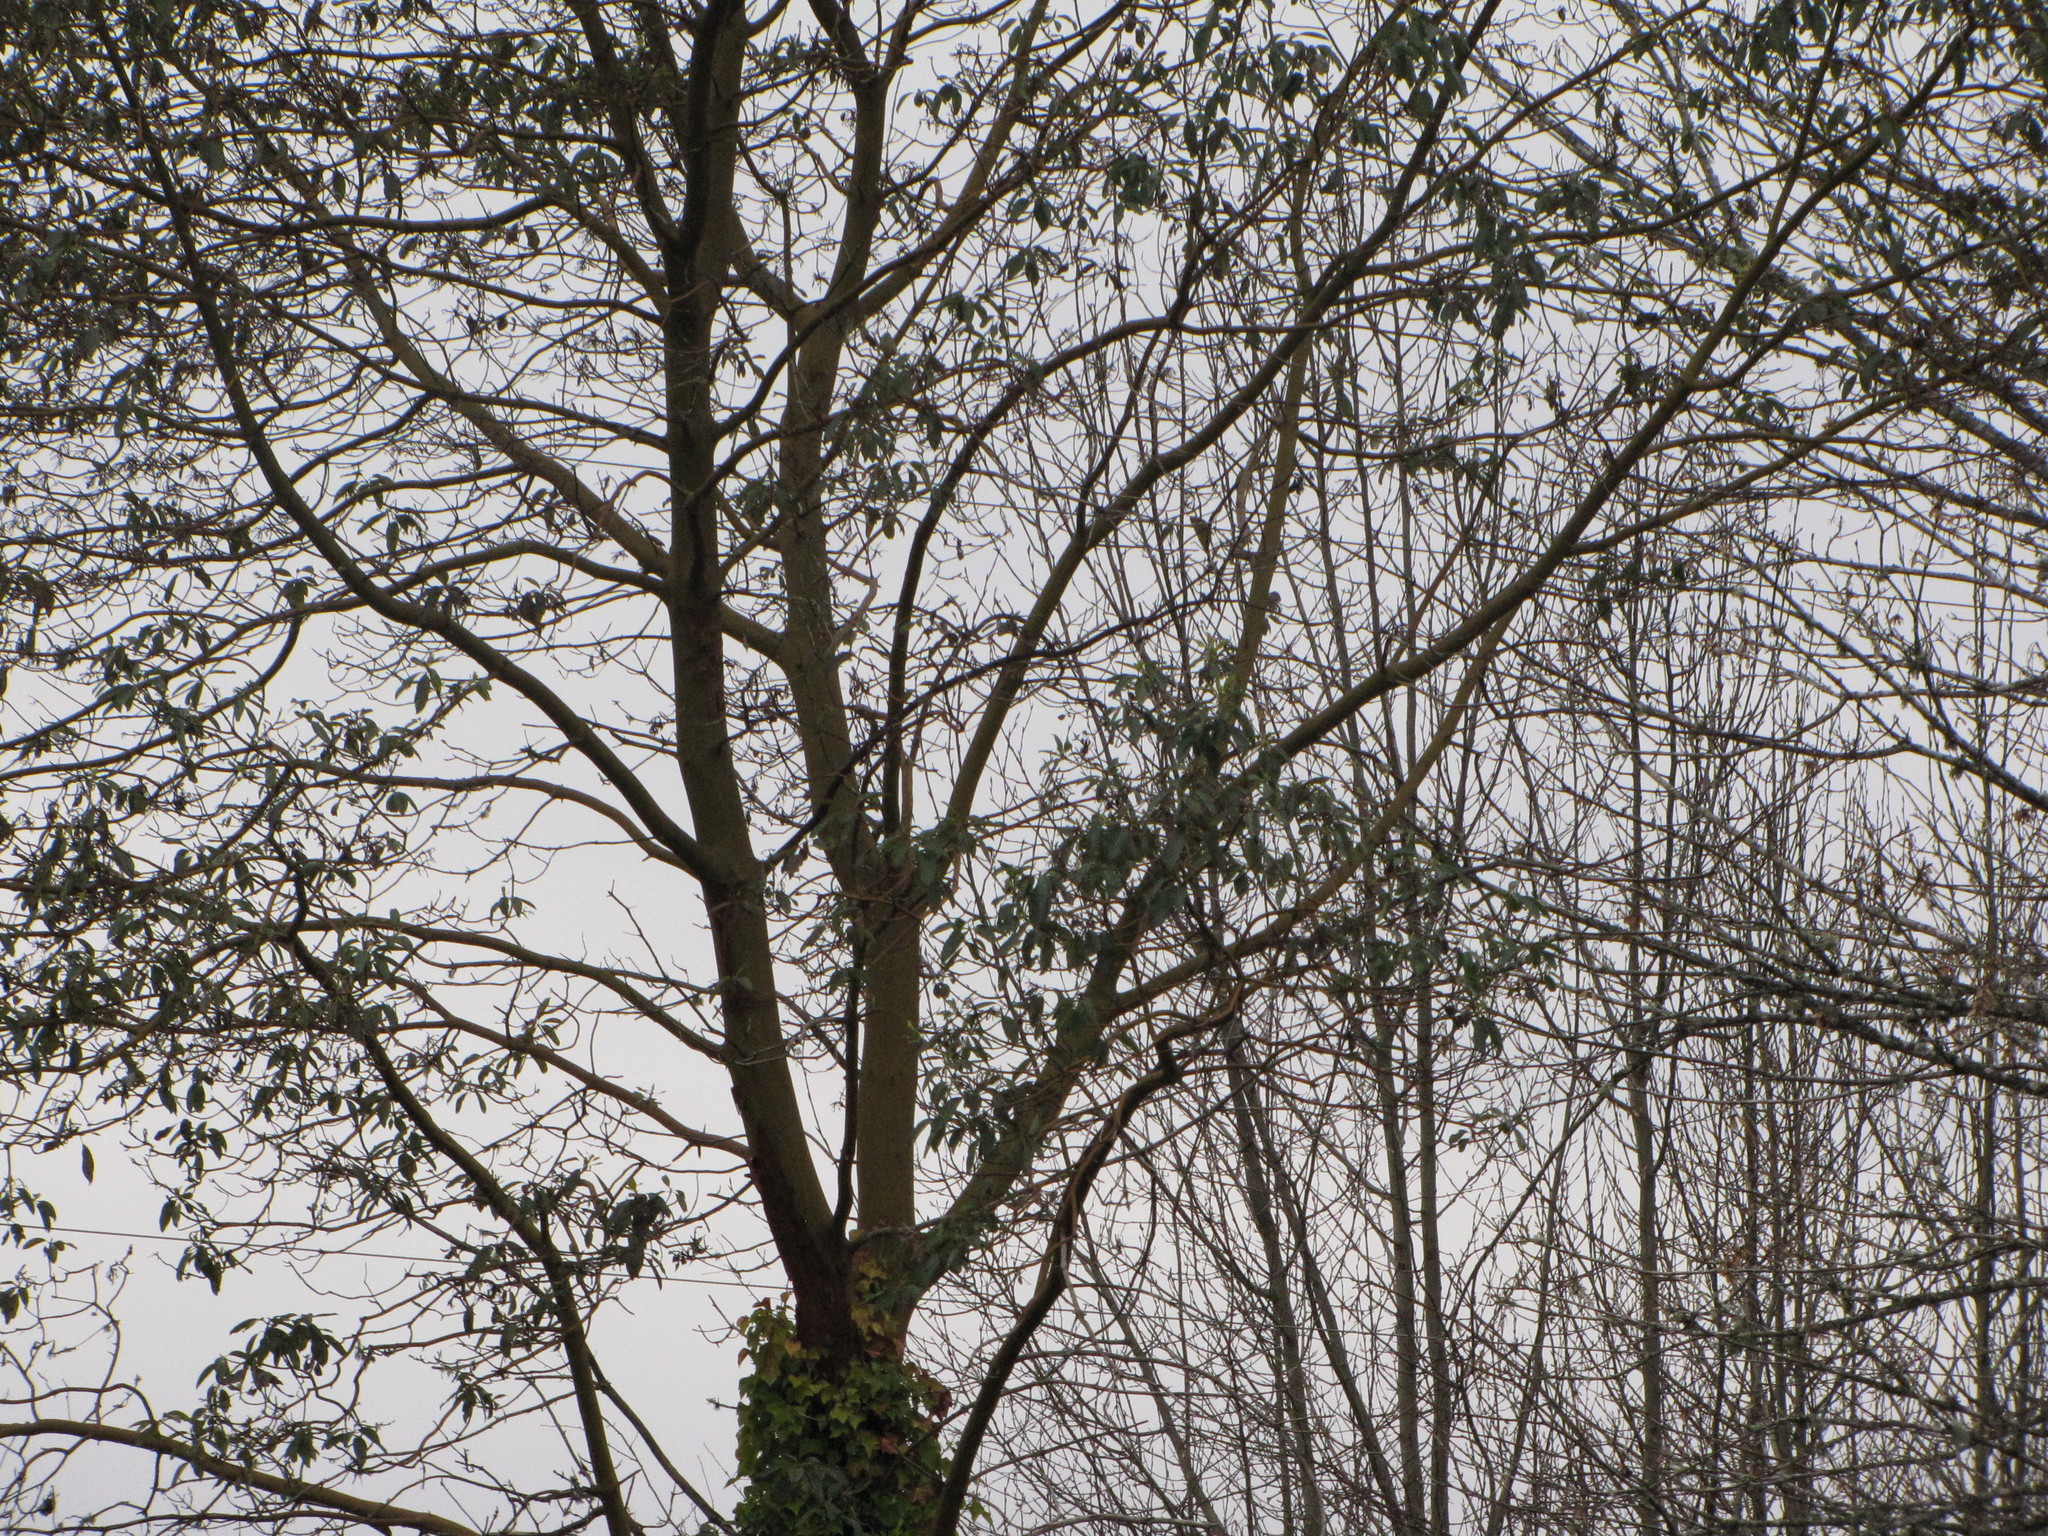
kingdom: Plantae
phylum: Tracheophyta
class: Magnoliopsida
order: Ericales
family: Ericaceae
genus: Arbutus
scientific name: Arbutus menziesii
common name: Pacific madrone
